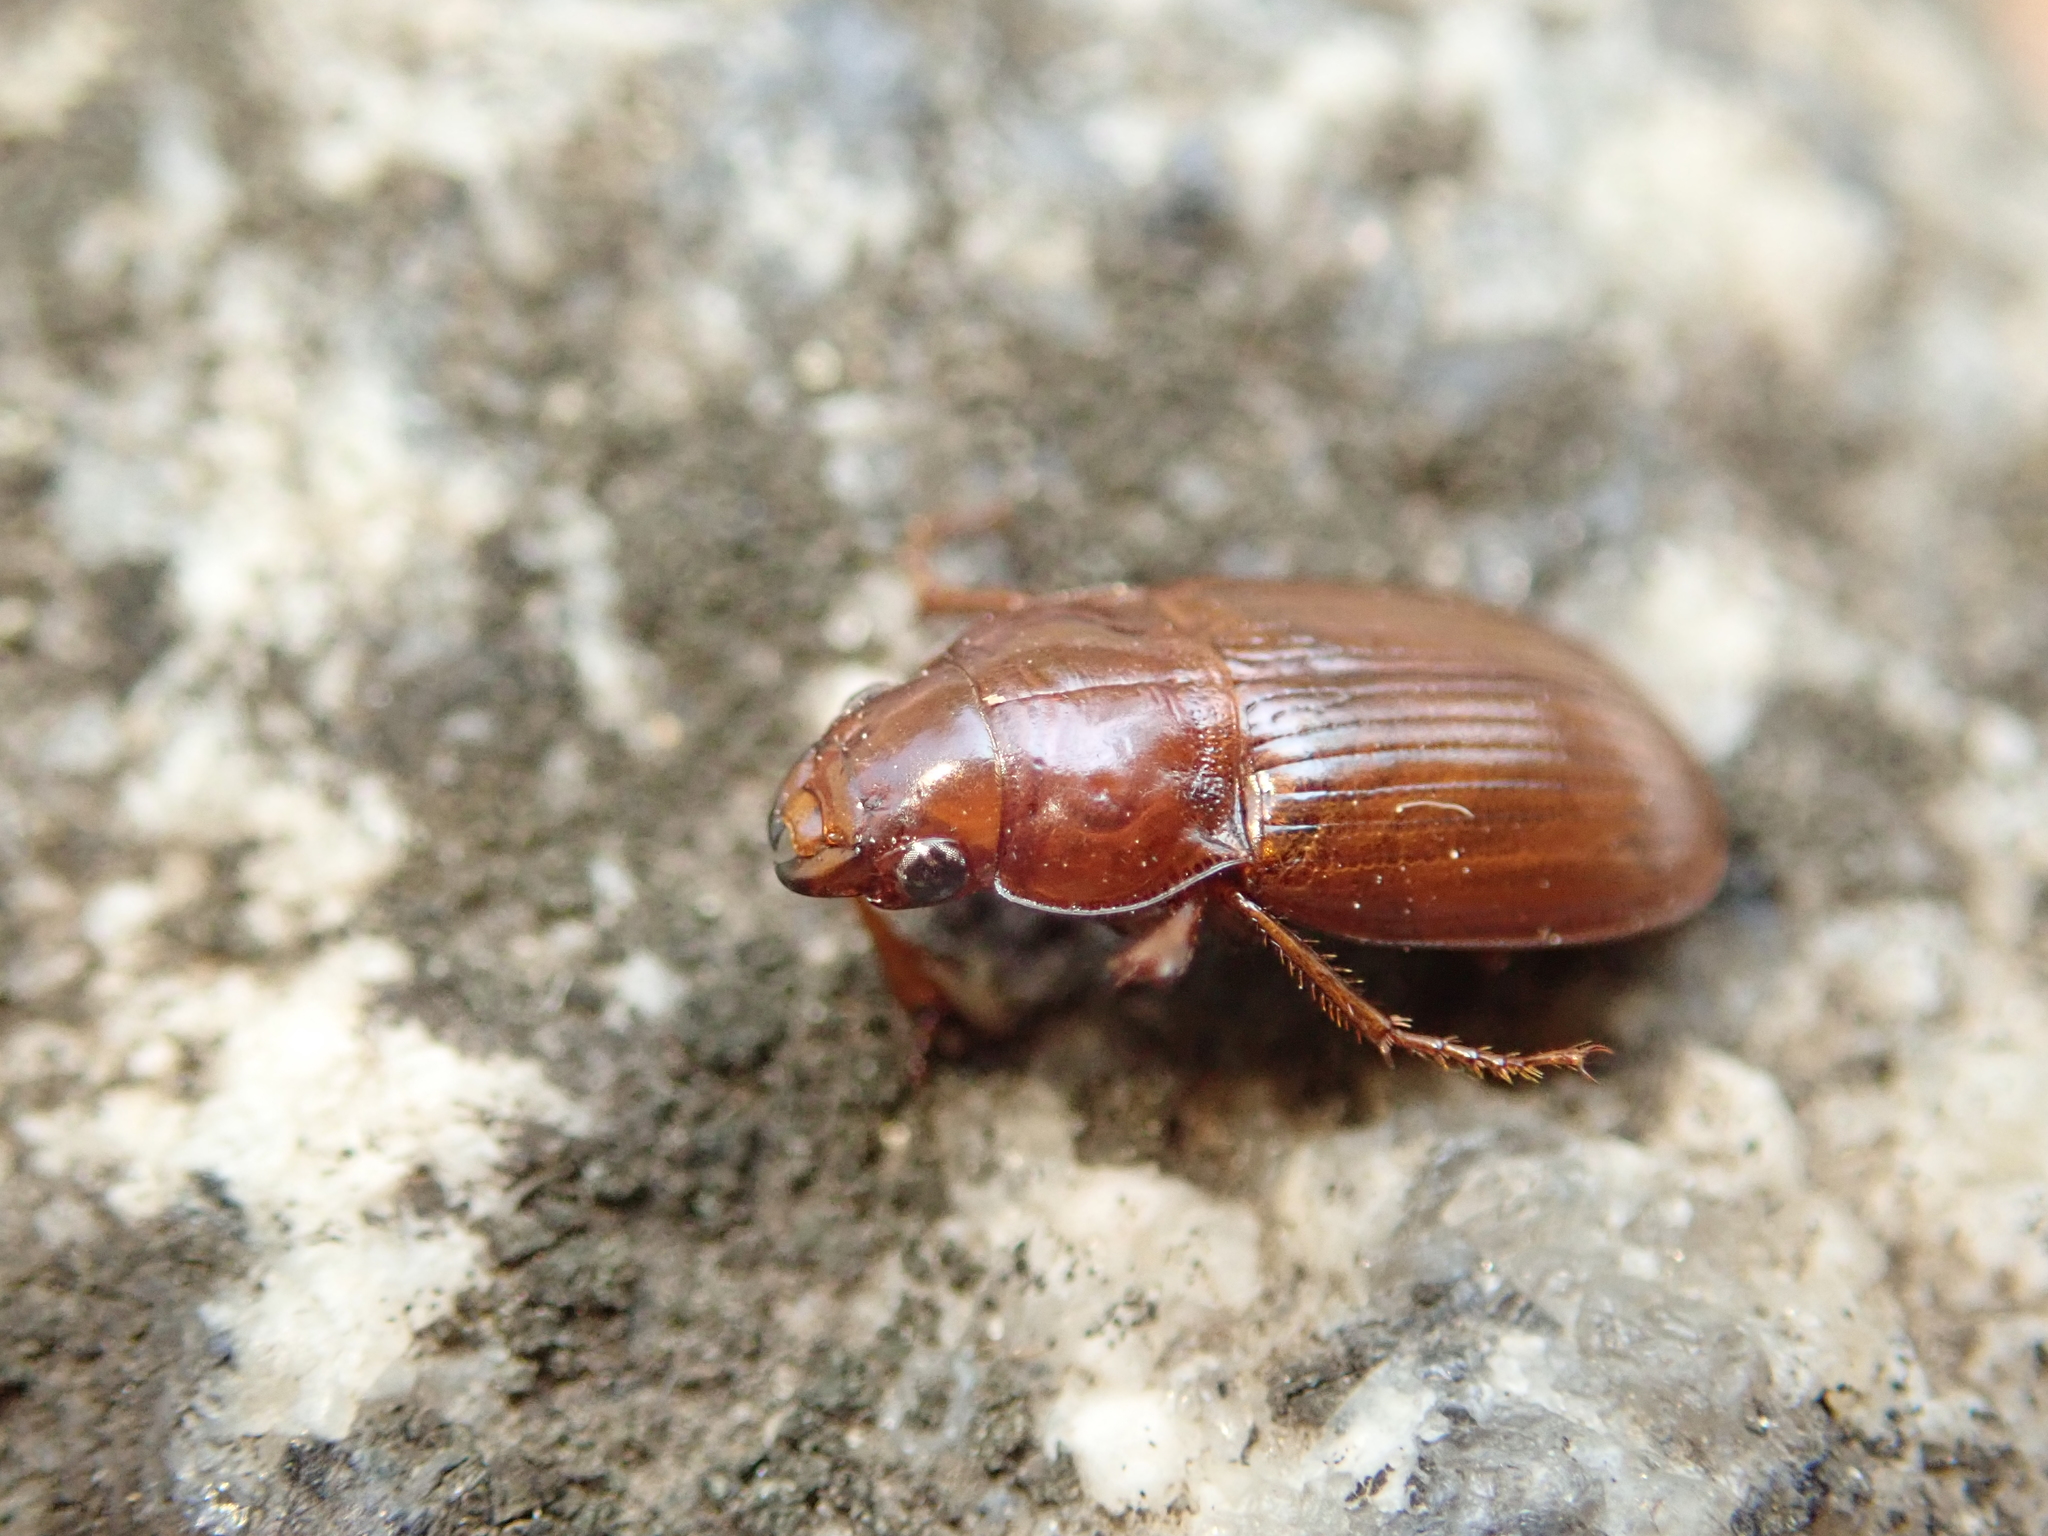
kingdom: Animalia
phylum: Arthropoda
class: Insecta
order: Coleoptera
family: Carabidae
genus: Amara
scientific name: Amara fulva
